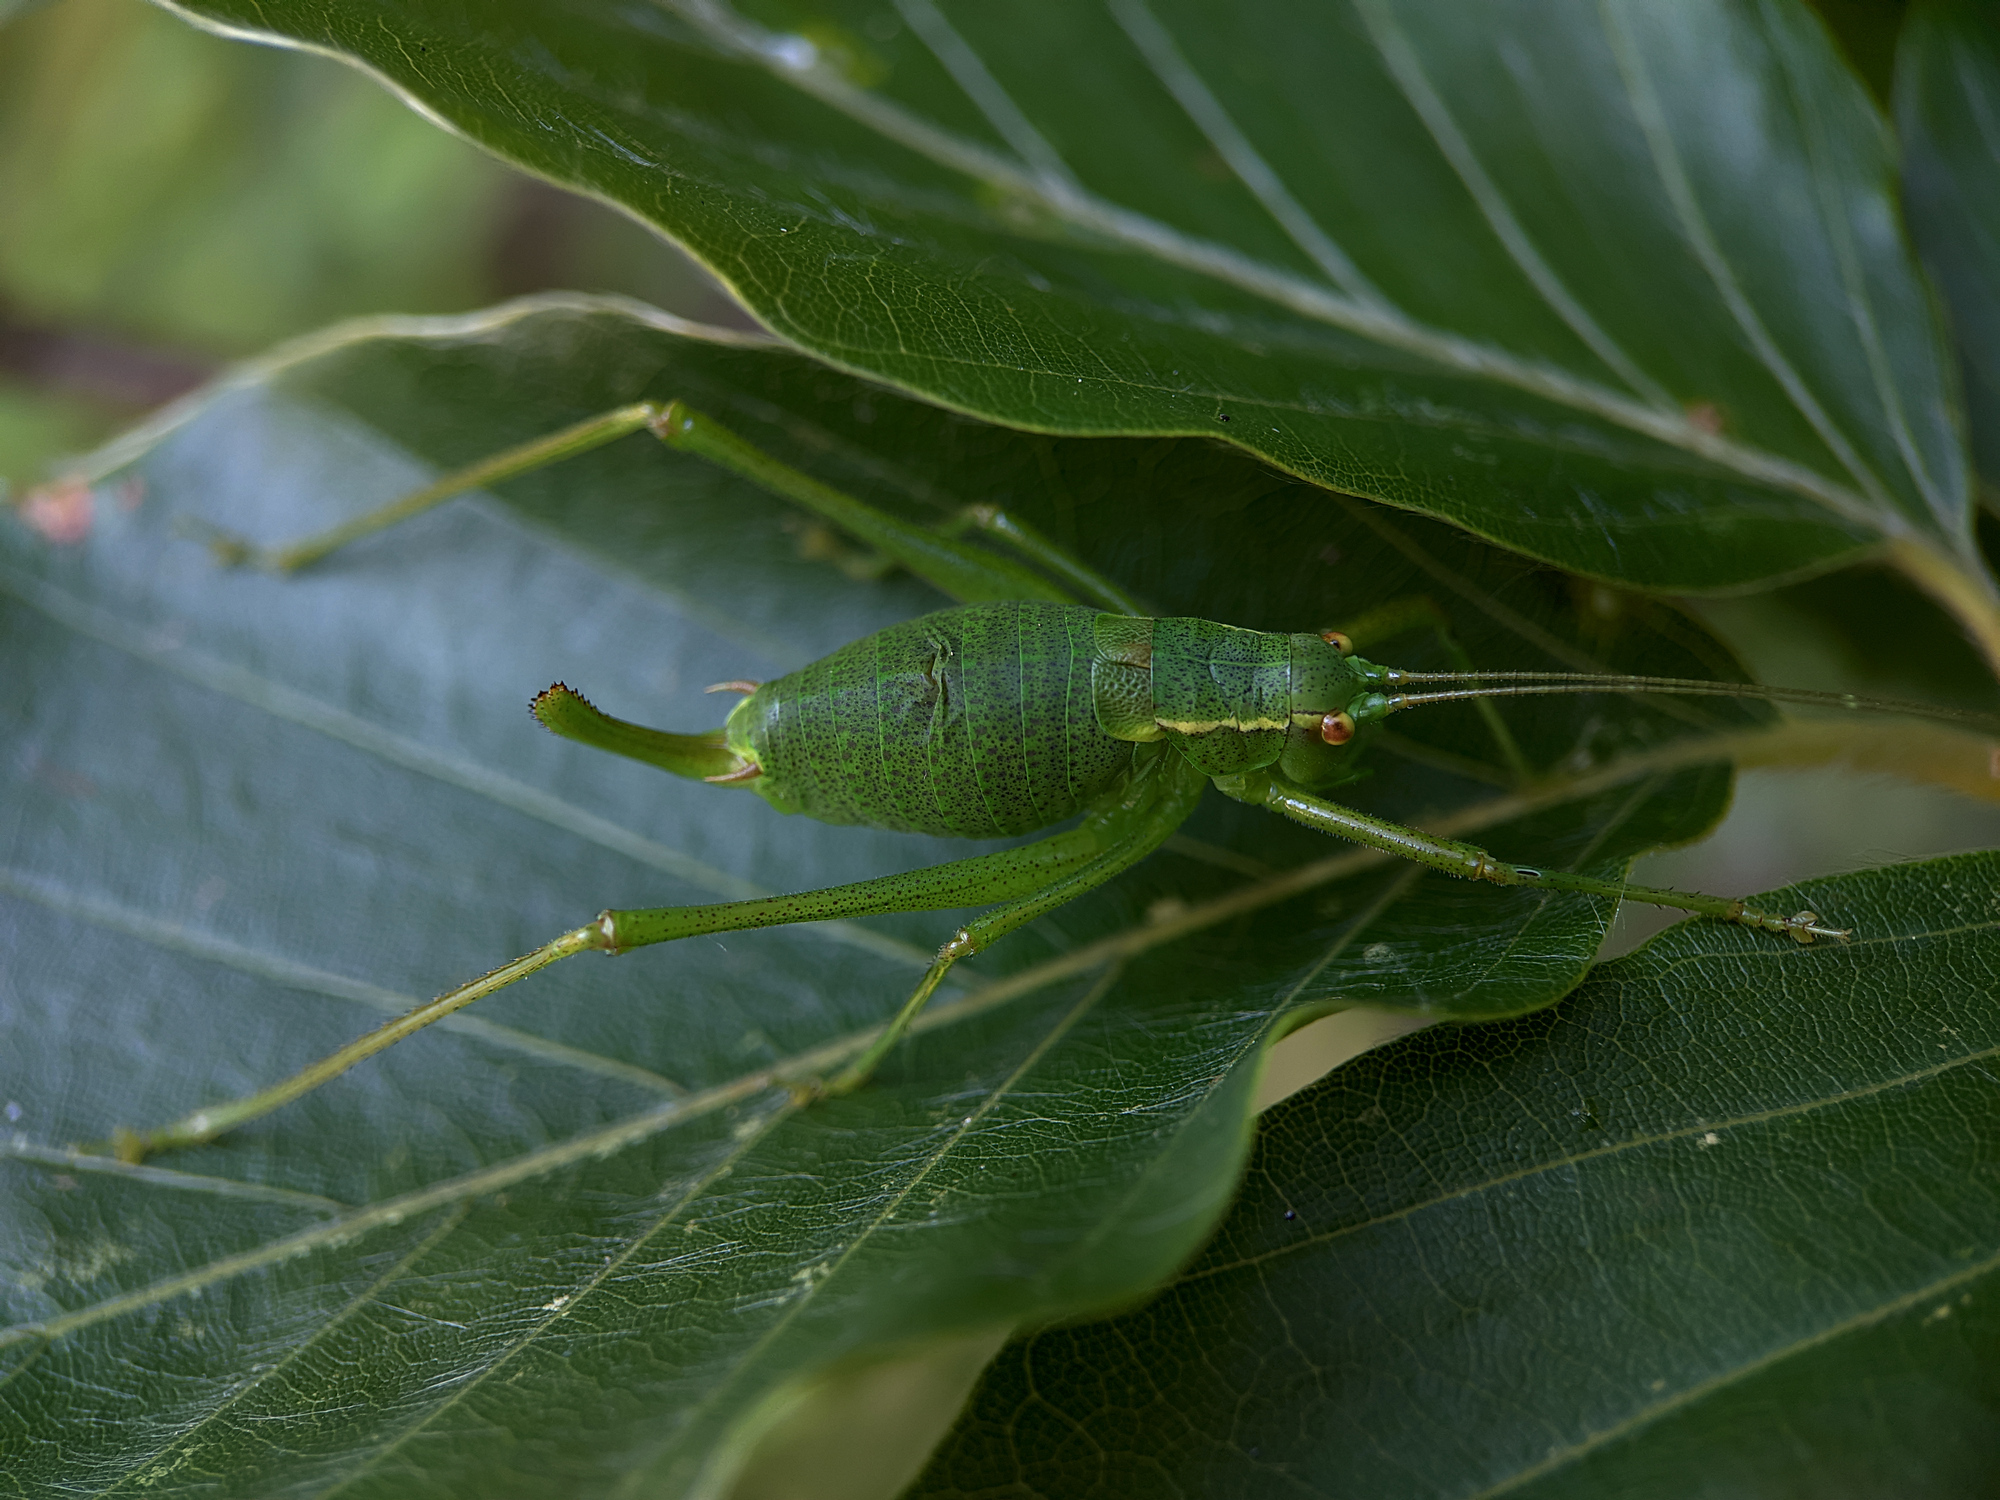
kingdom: Animalia
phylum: Arthropoda
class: Insecta
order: Orthoptera
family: Tettigoniidae
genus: Barbitistes
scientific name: Barbitistes serricauda
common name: Saw-tailed bush-cricket
